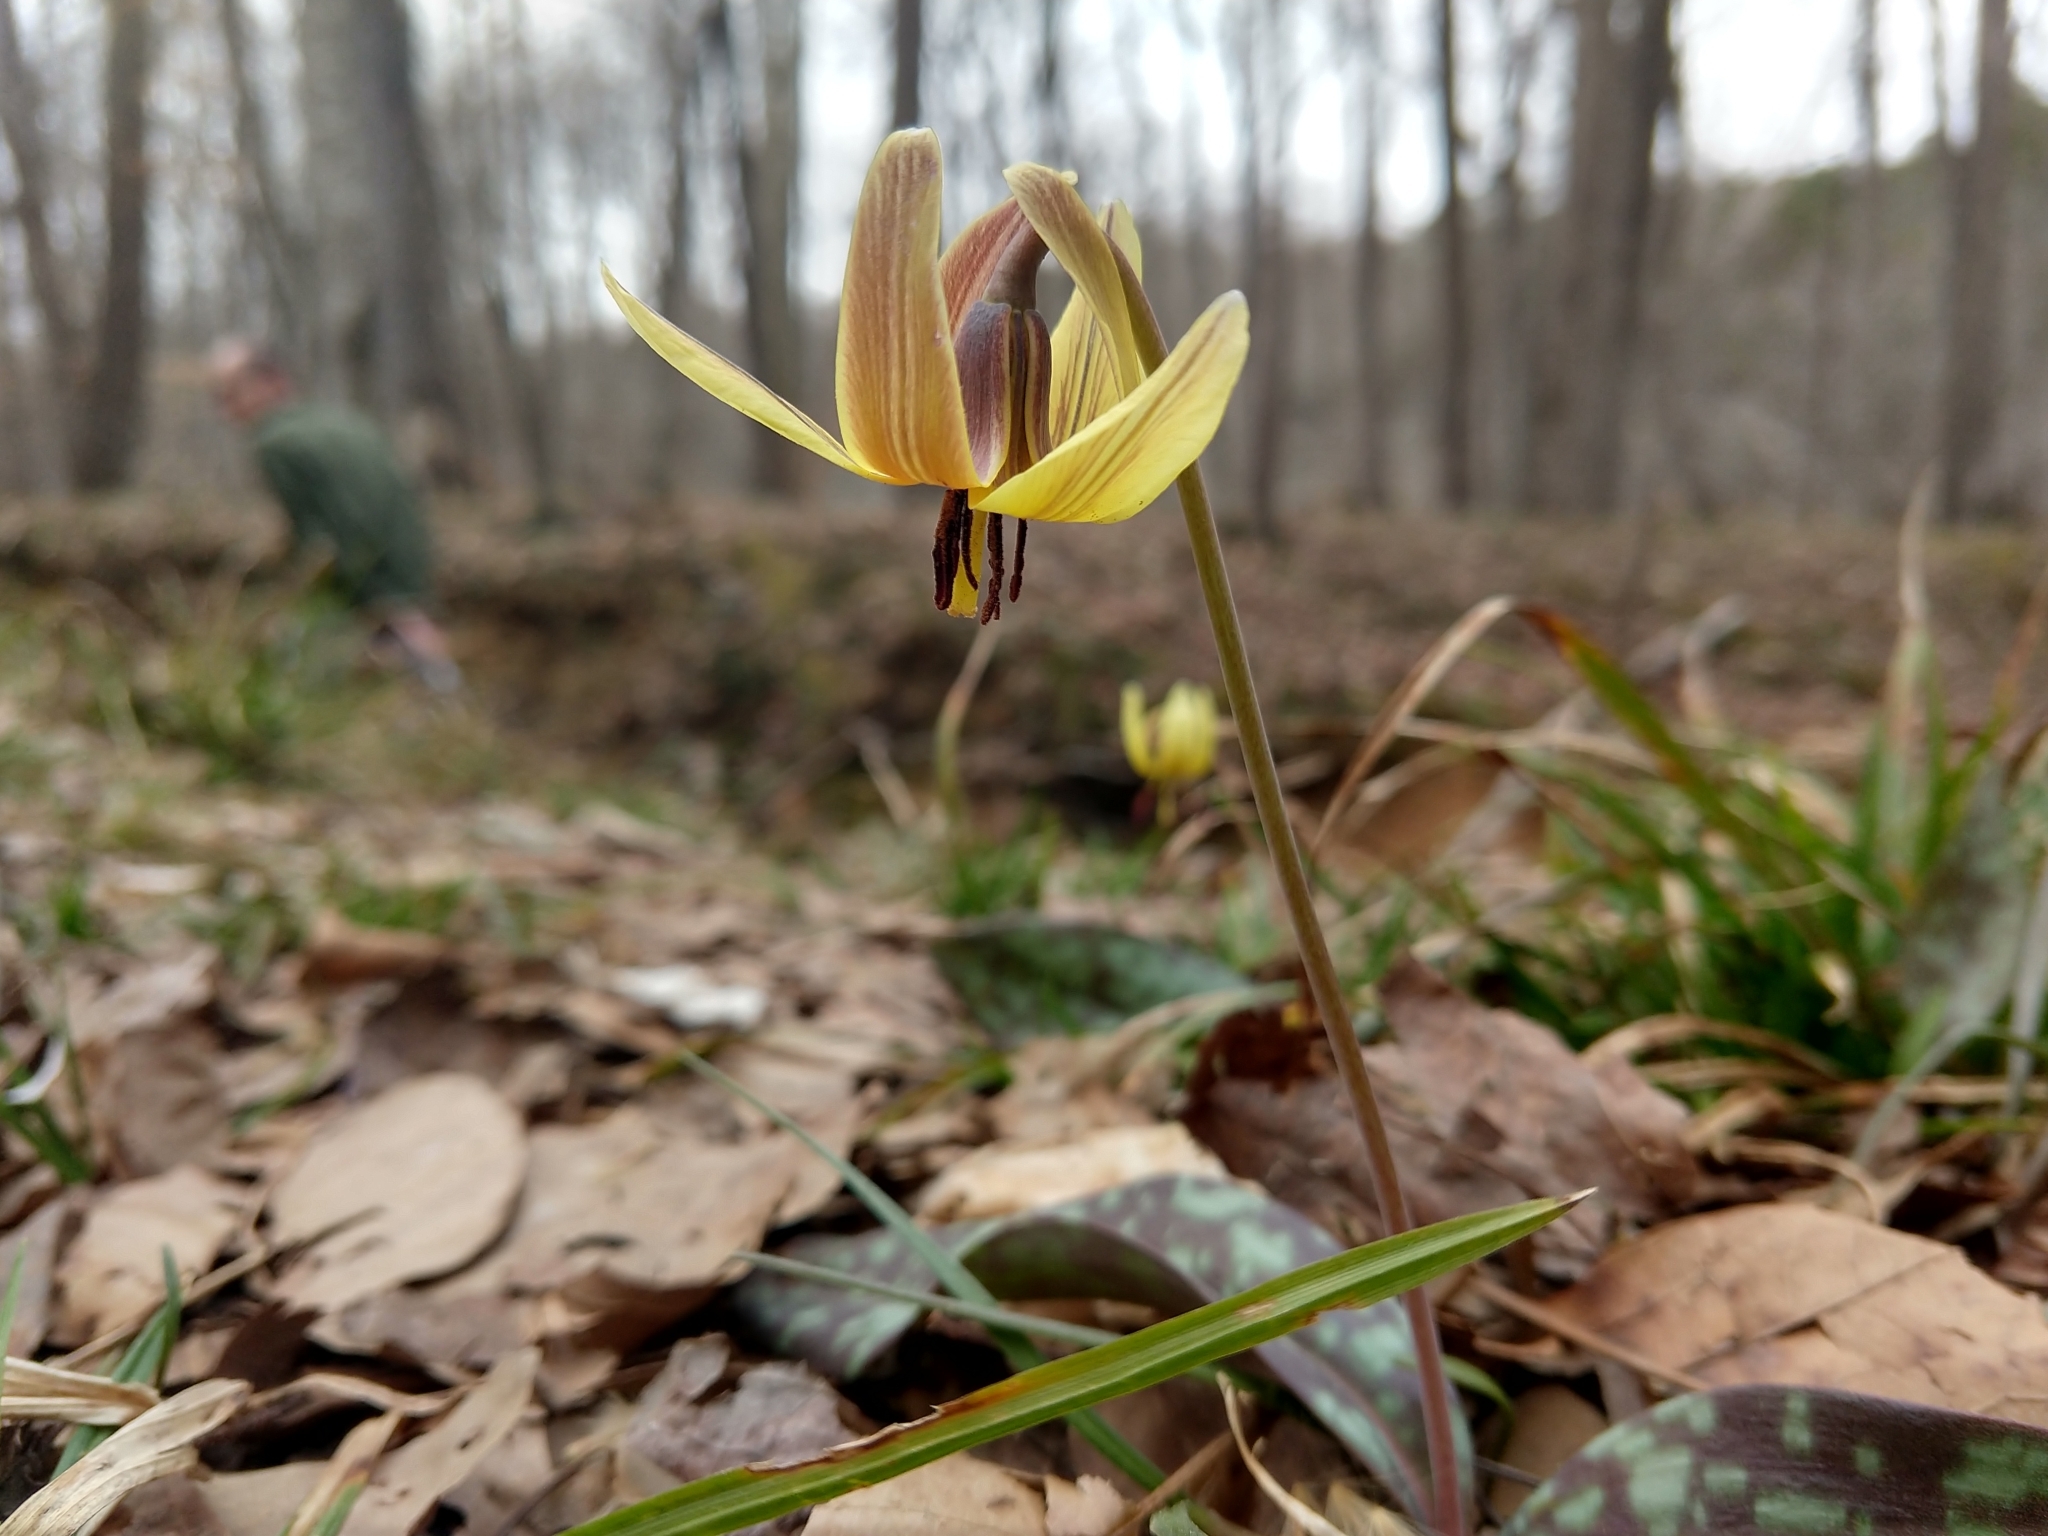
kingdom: Plantae
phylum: Tracheophyta
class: Liliopsida
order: Liliales
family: Liliaceae
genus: Erythronium
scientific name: Erythronium umbilicatum
